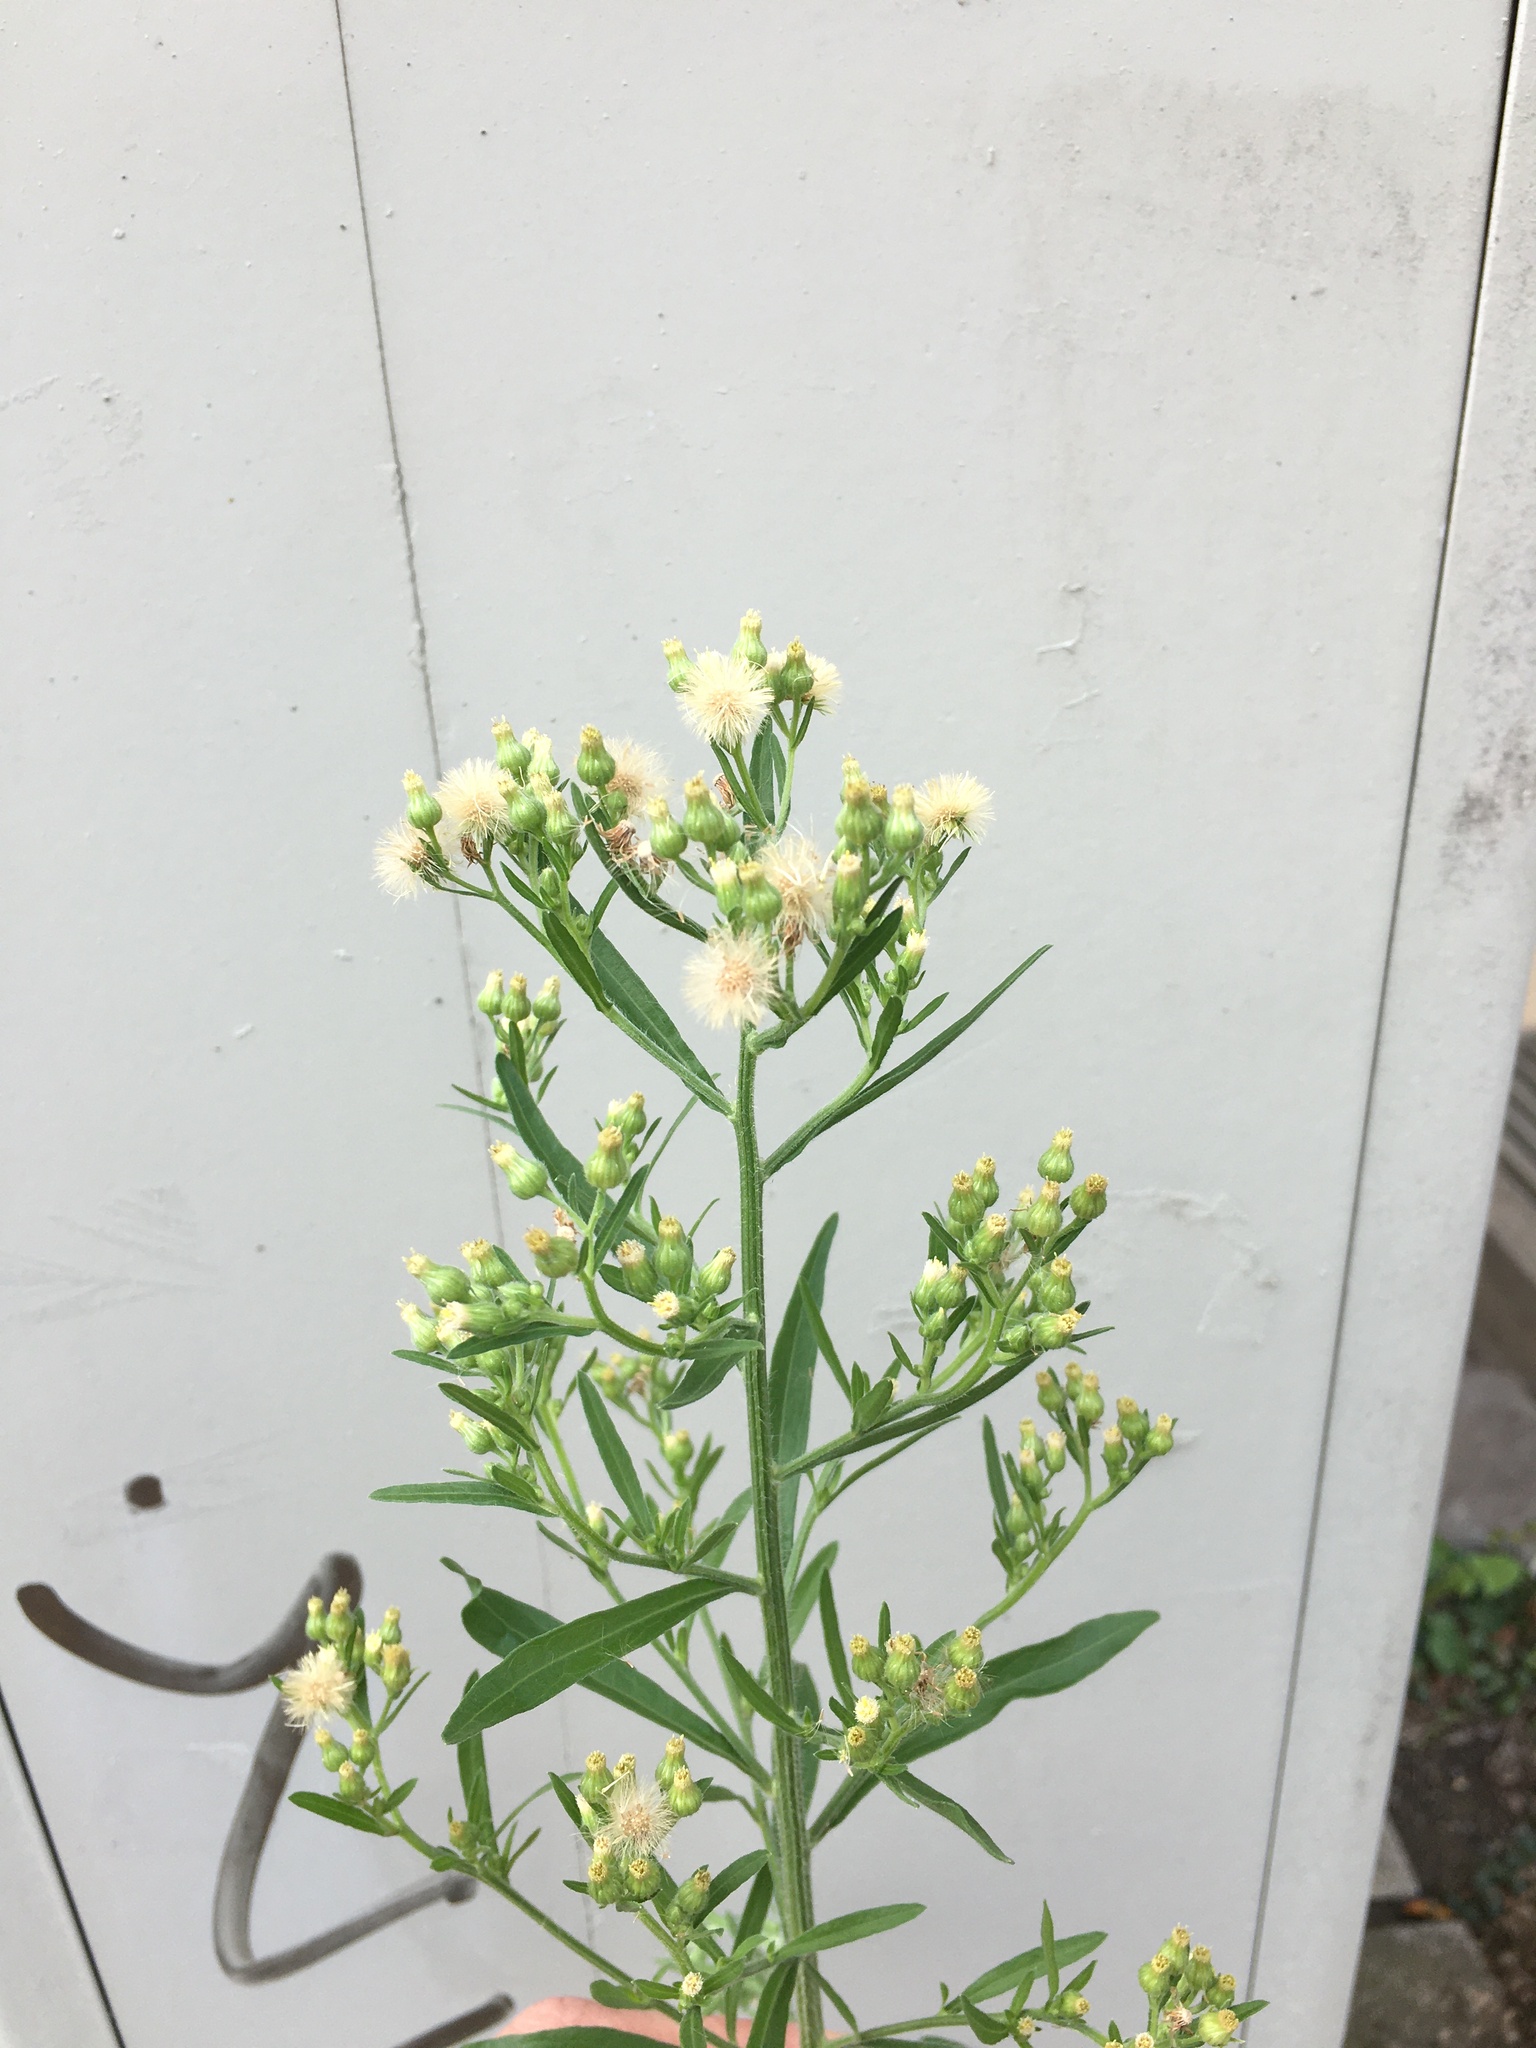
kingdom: Plantae
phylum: Tracheophyta
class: Magnoliopsida
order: Asterales
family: Asteraceae
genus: Erigeron
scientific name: Erigeron canadensis
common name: Canadian fleabane
